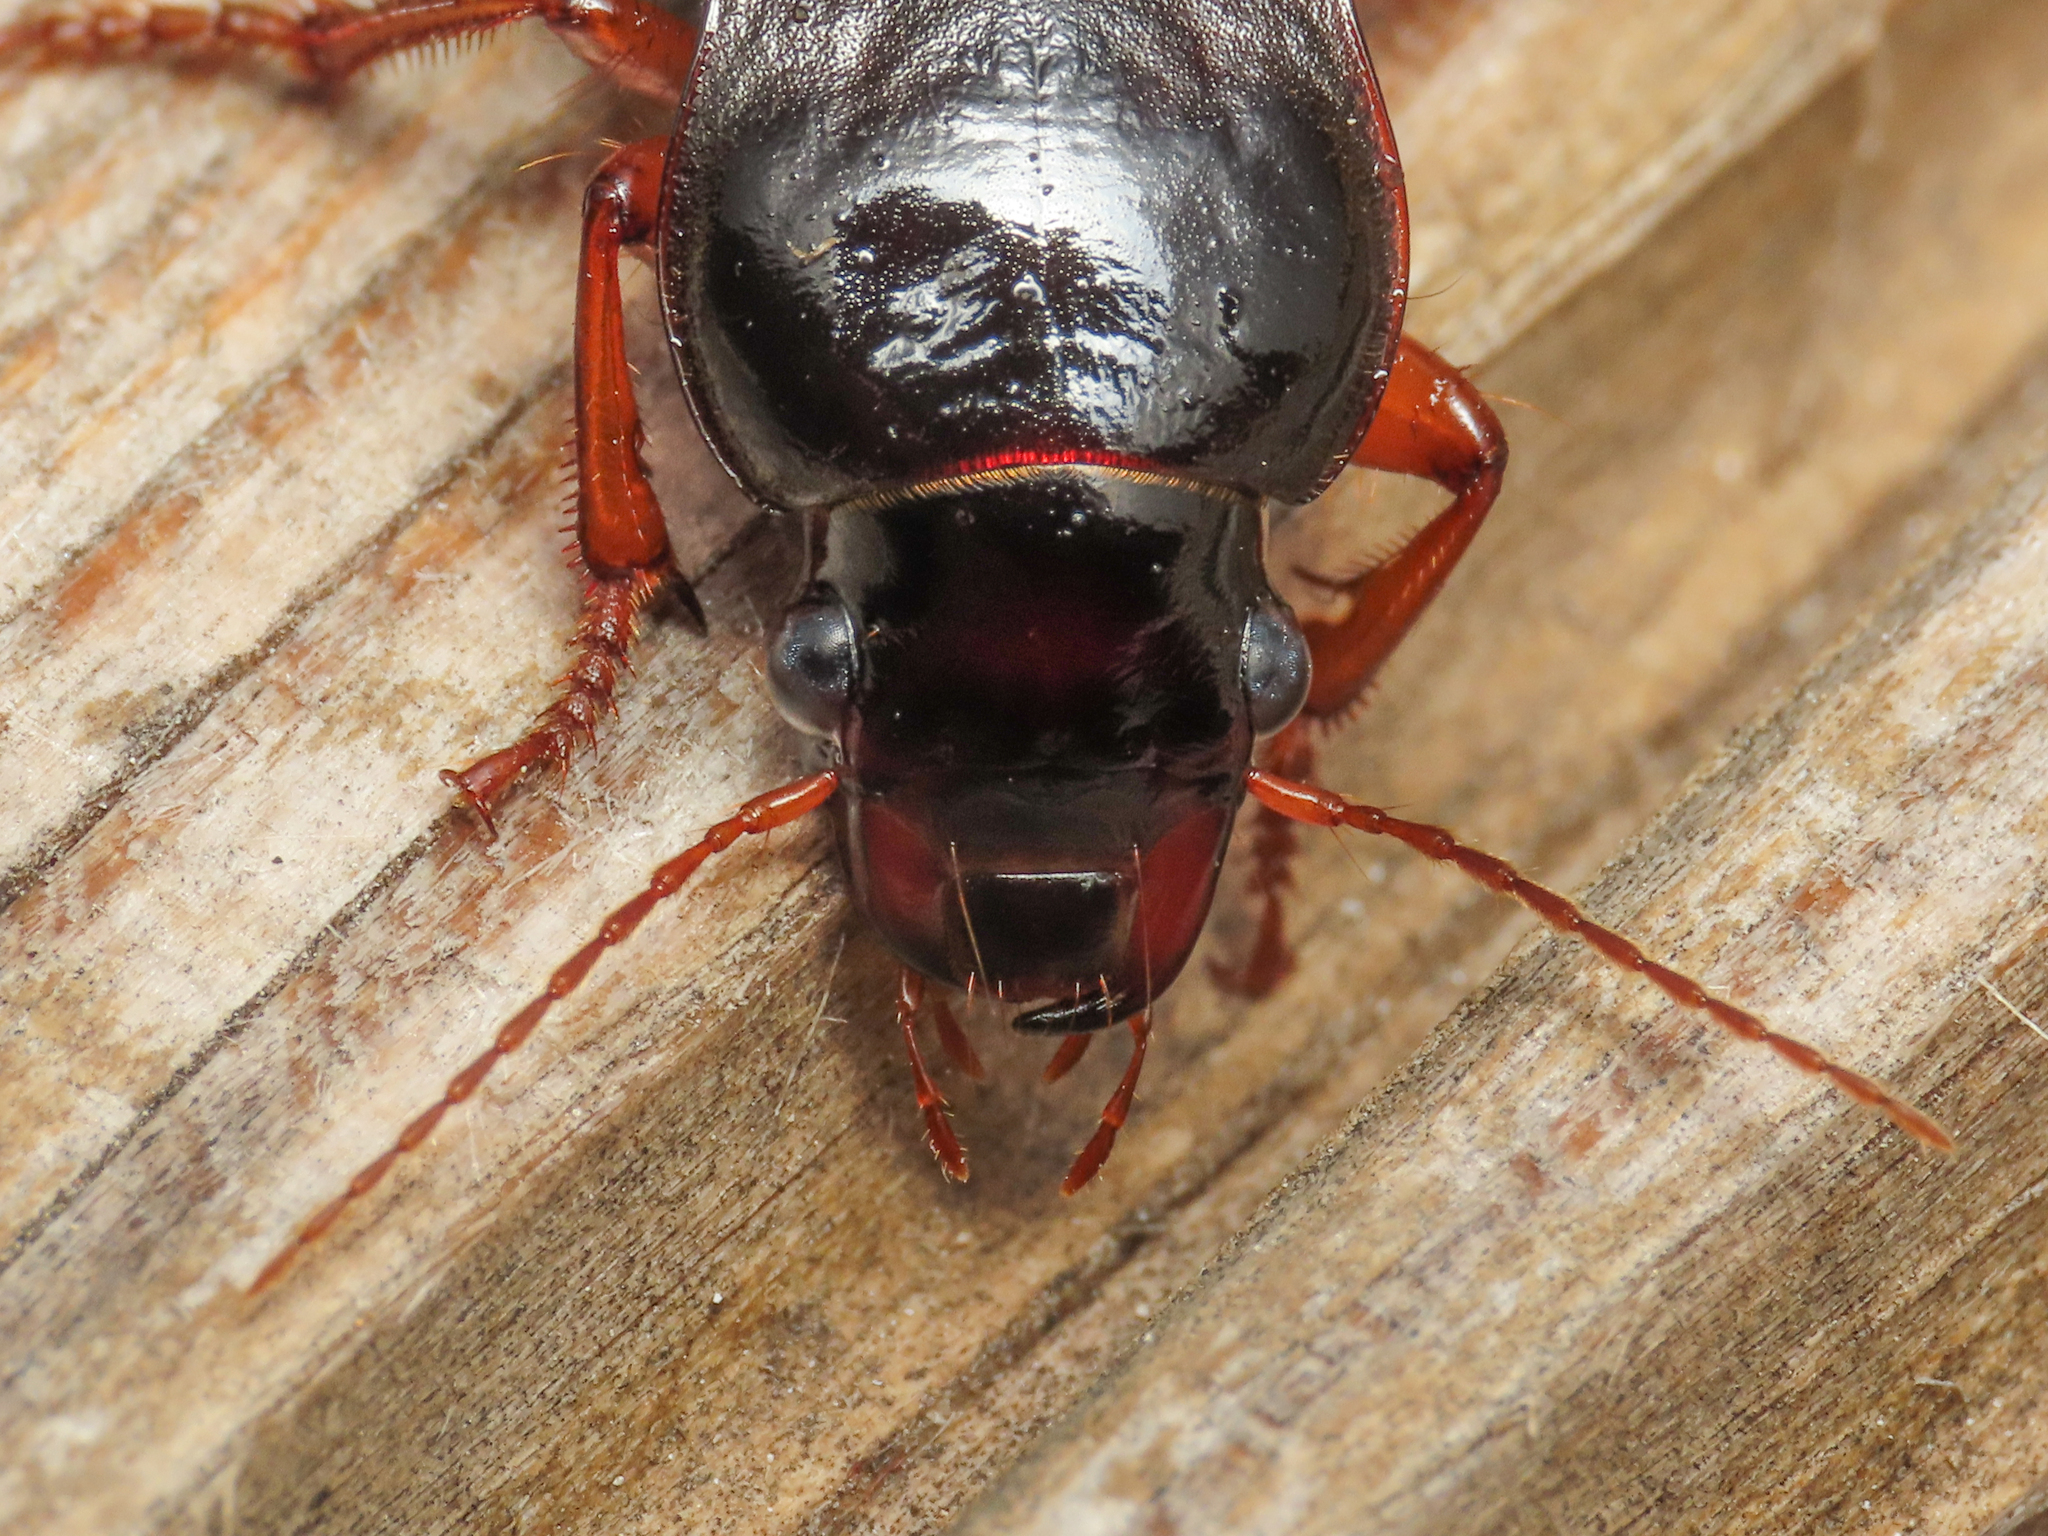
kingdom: Animalia
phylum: Arthropoda
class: Insecta
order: Coleoptera
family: Carabidae
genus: Harpalus
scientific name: Harpalus rufipes
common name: Strawberry harp ground beetle
